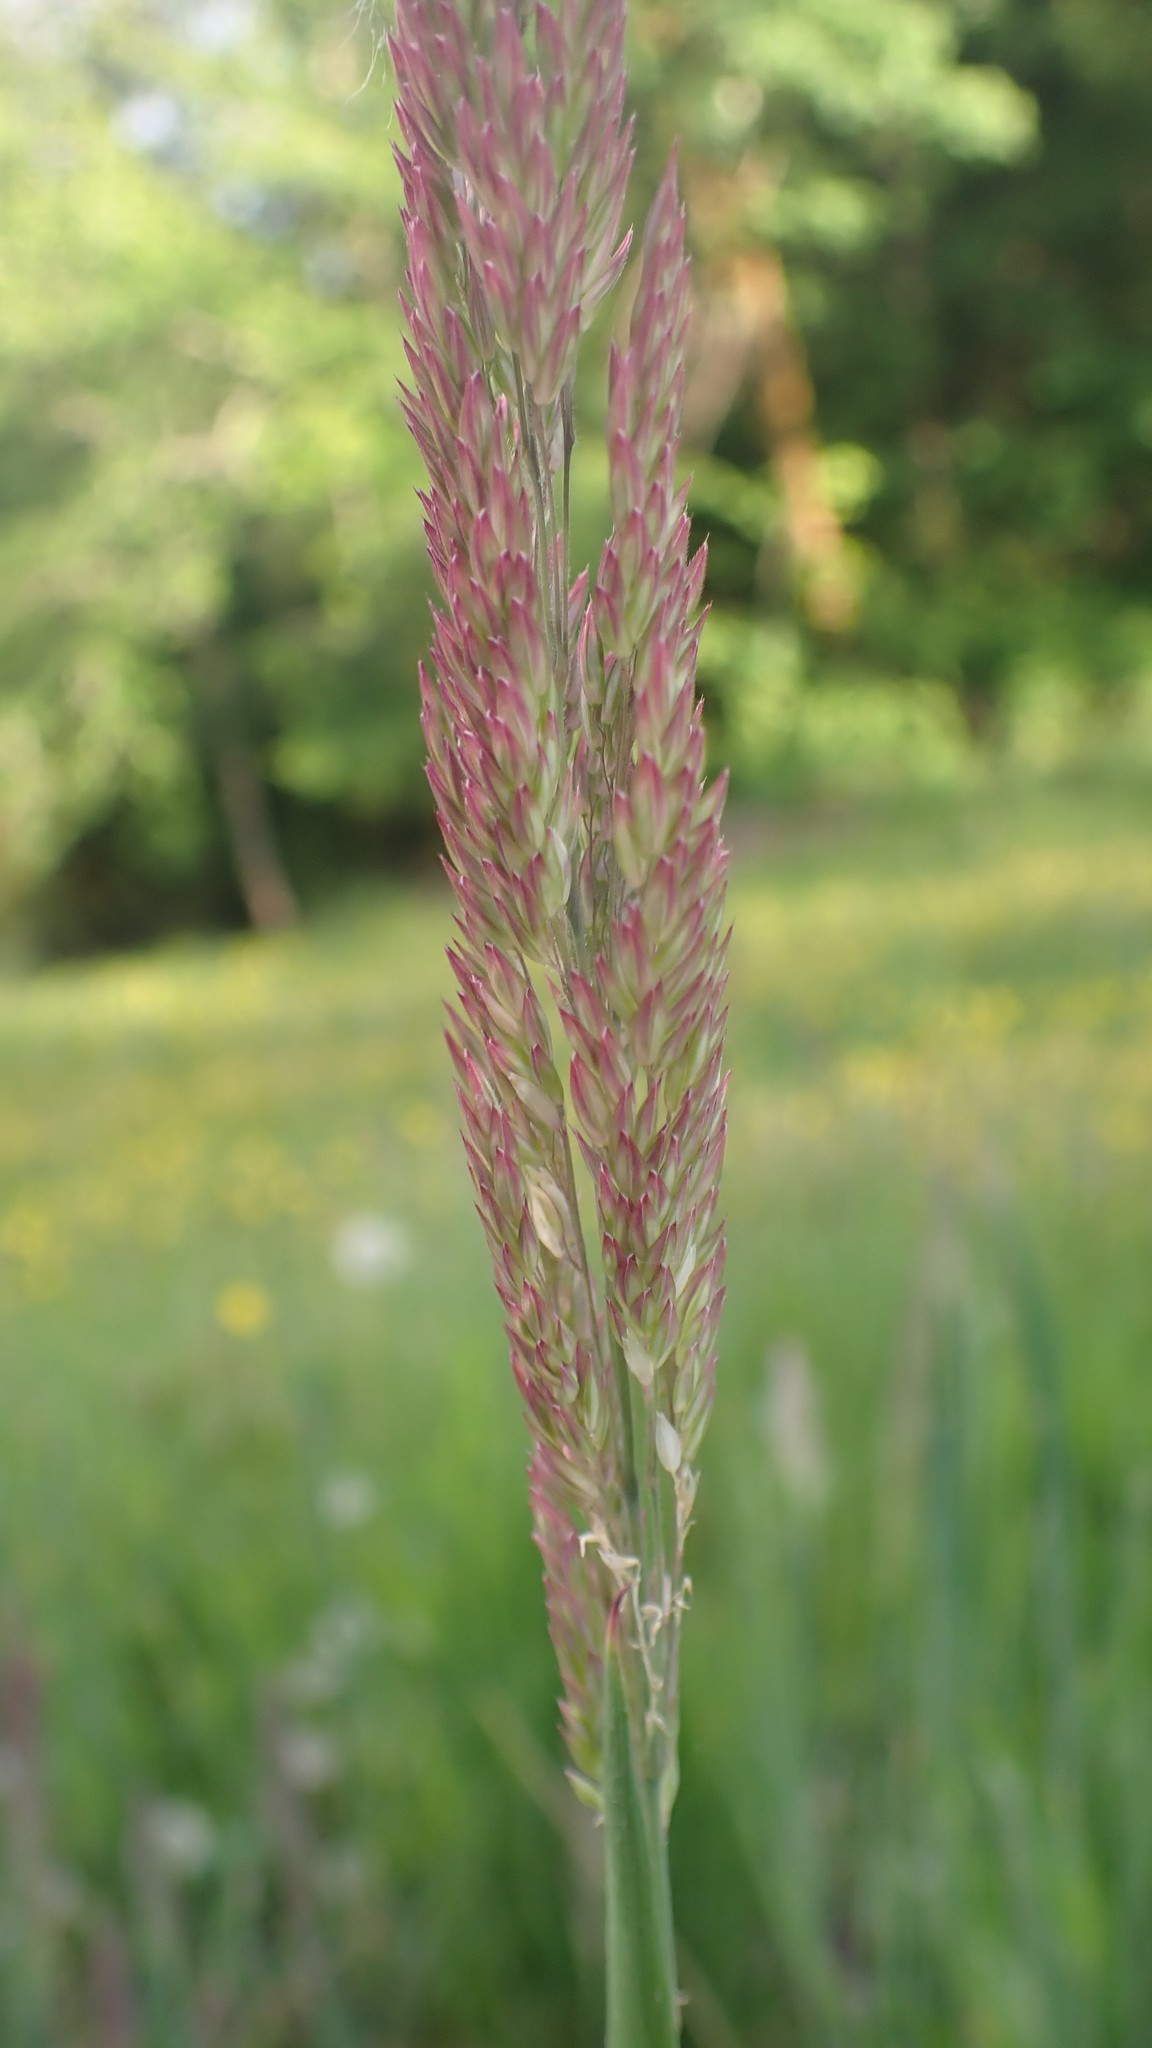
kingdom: Plantae
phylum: Tracheophyta
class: Liliopsida
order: Poales
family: Poaceae
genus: Holcus
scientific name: Holcus lanatus
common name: Yorkshire-fog
